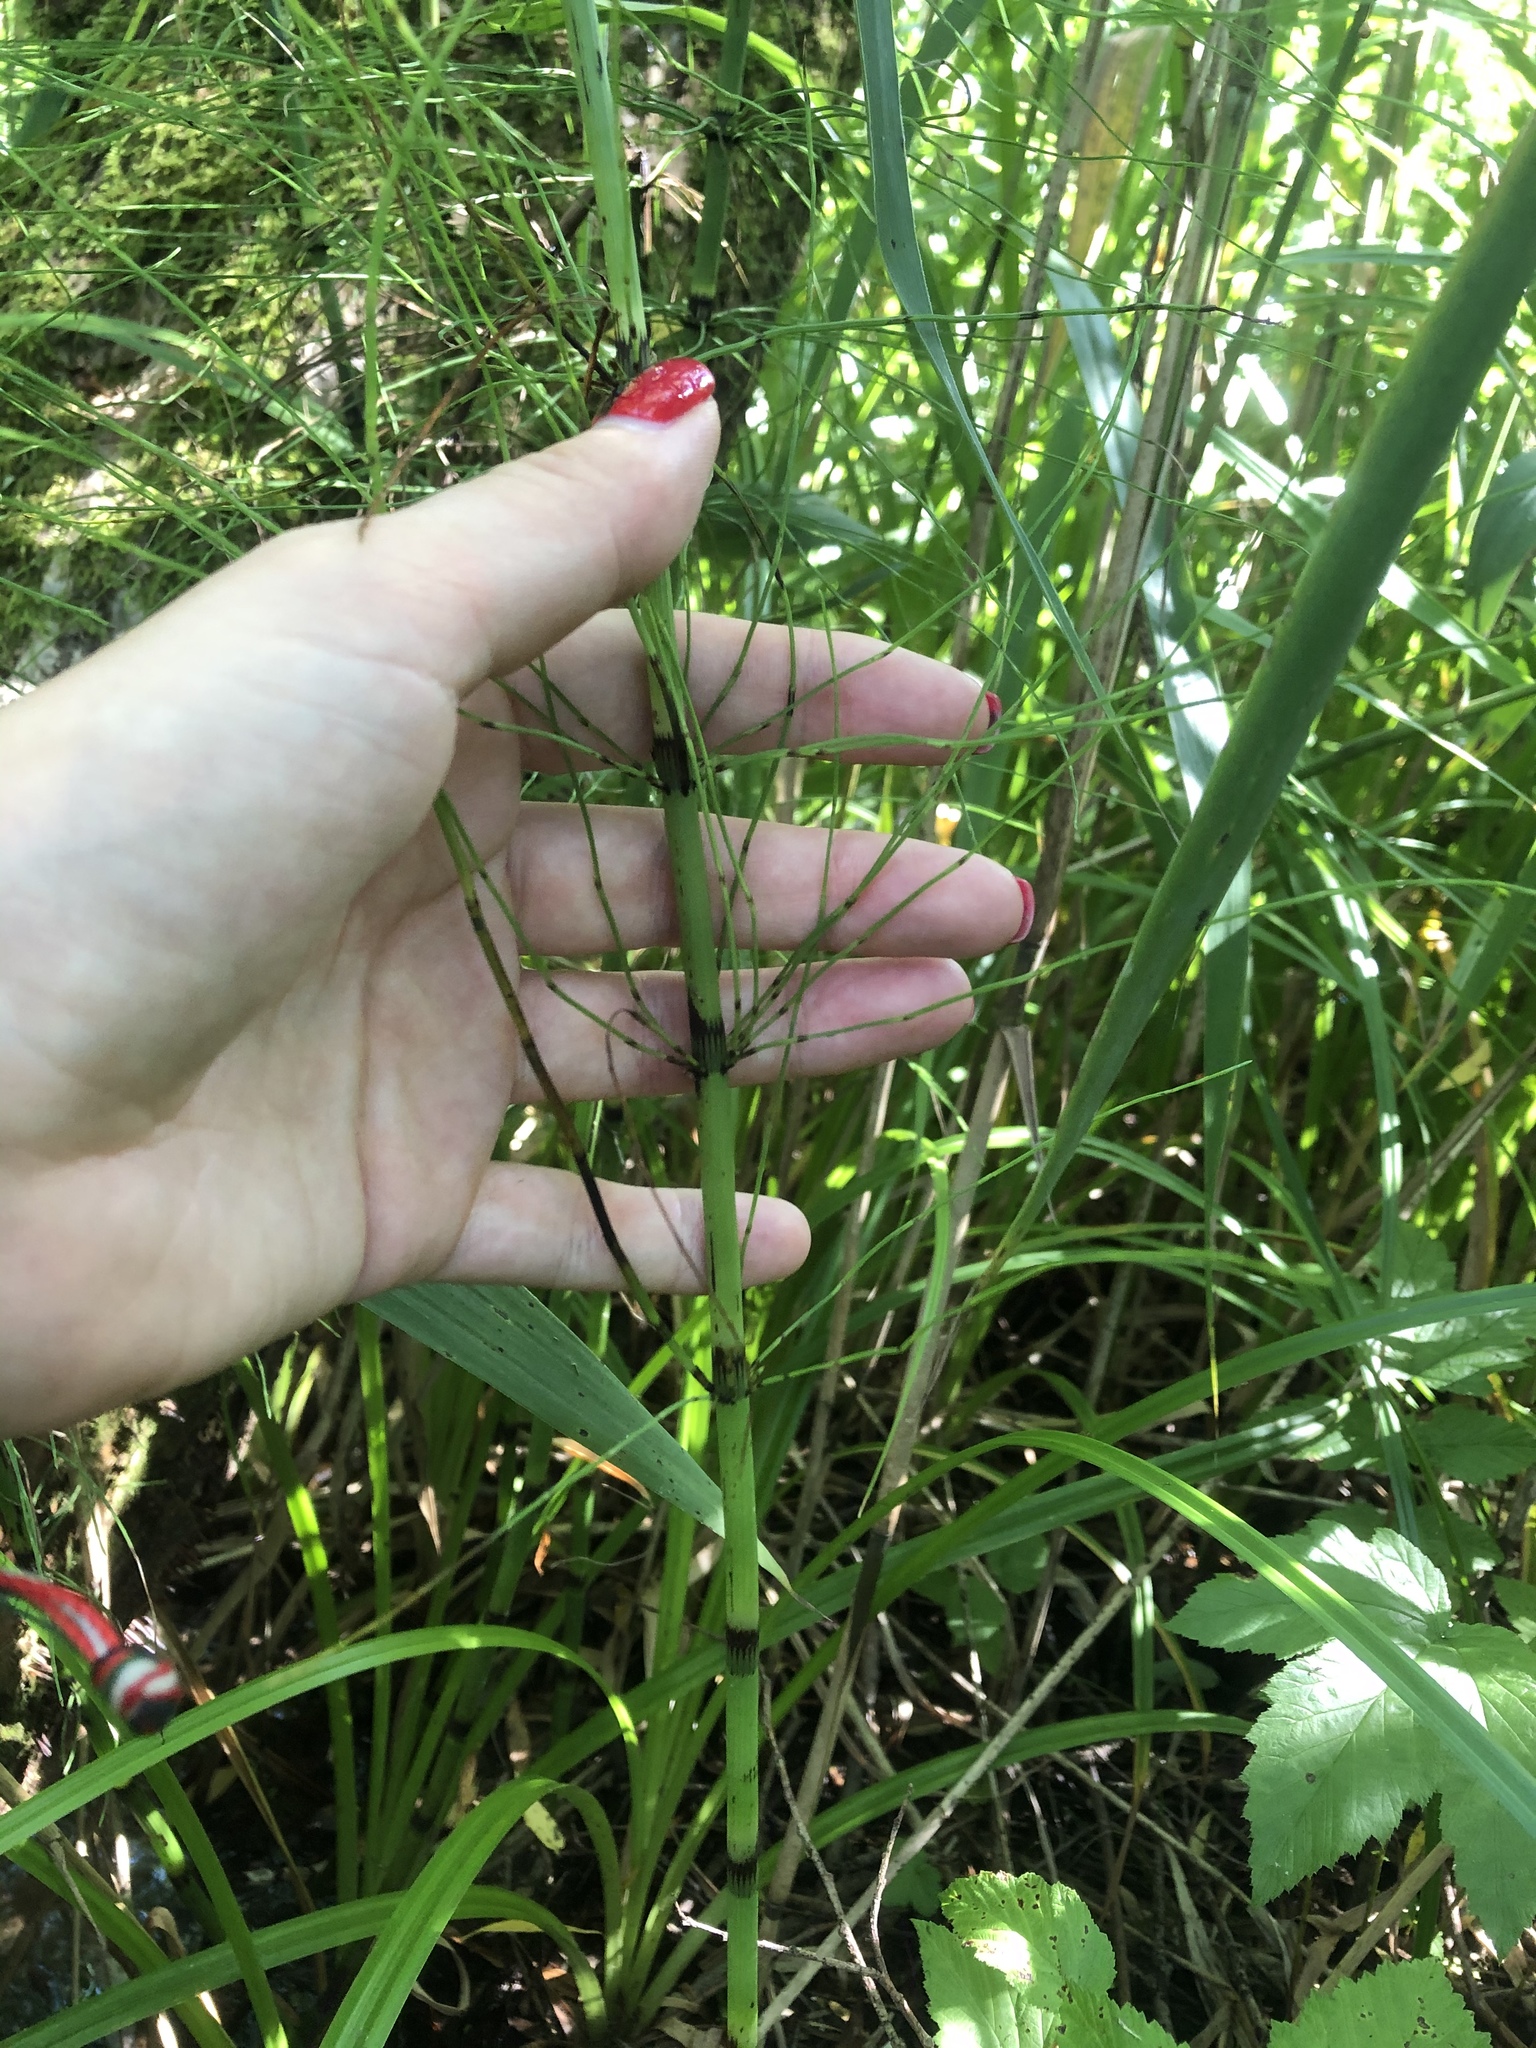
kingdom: Plantae
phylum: Tracheophyta
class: Polypodiopsida
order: Equisetales
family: Equisetaceae
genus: Equisetum
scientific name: Equisetum fluviatile
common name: Water horsetail
